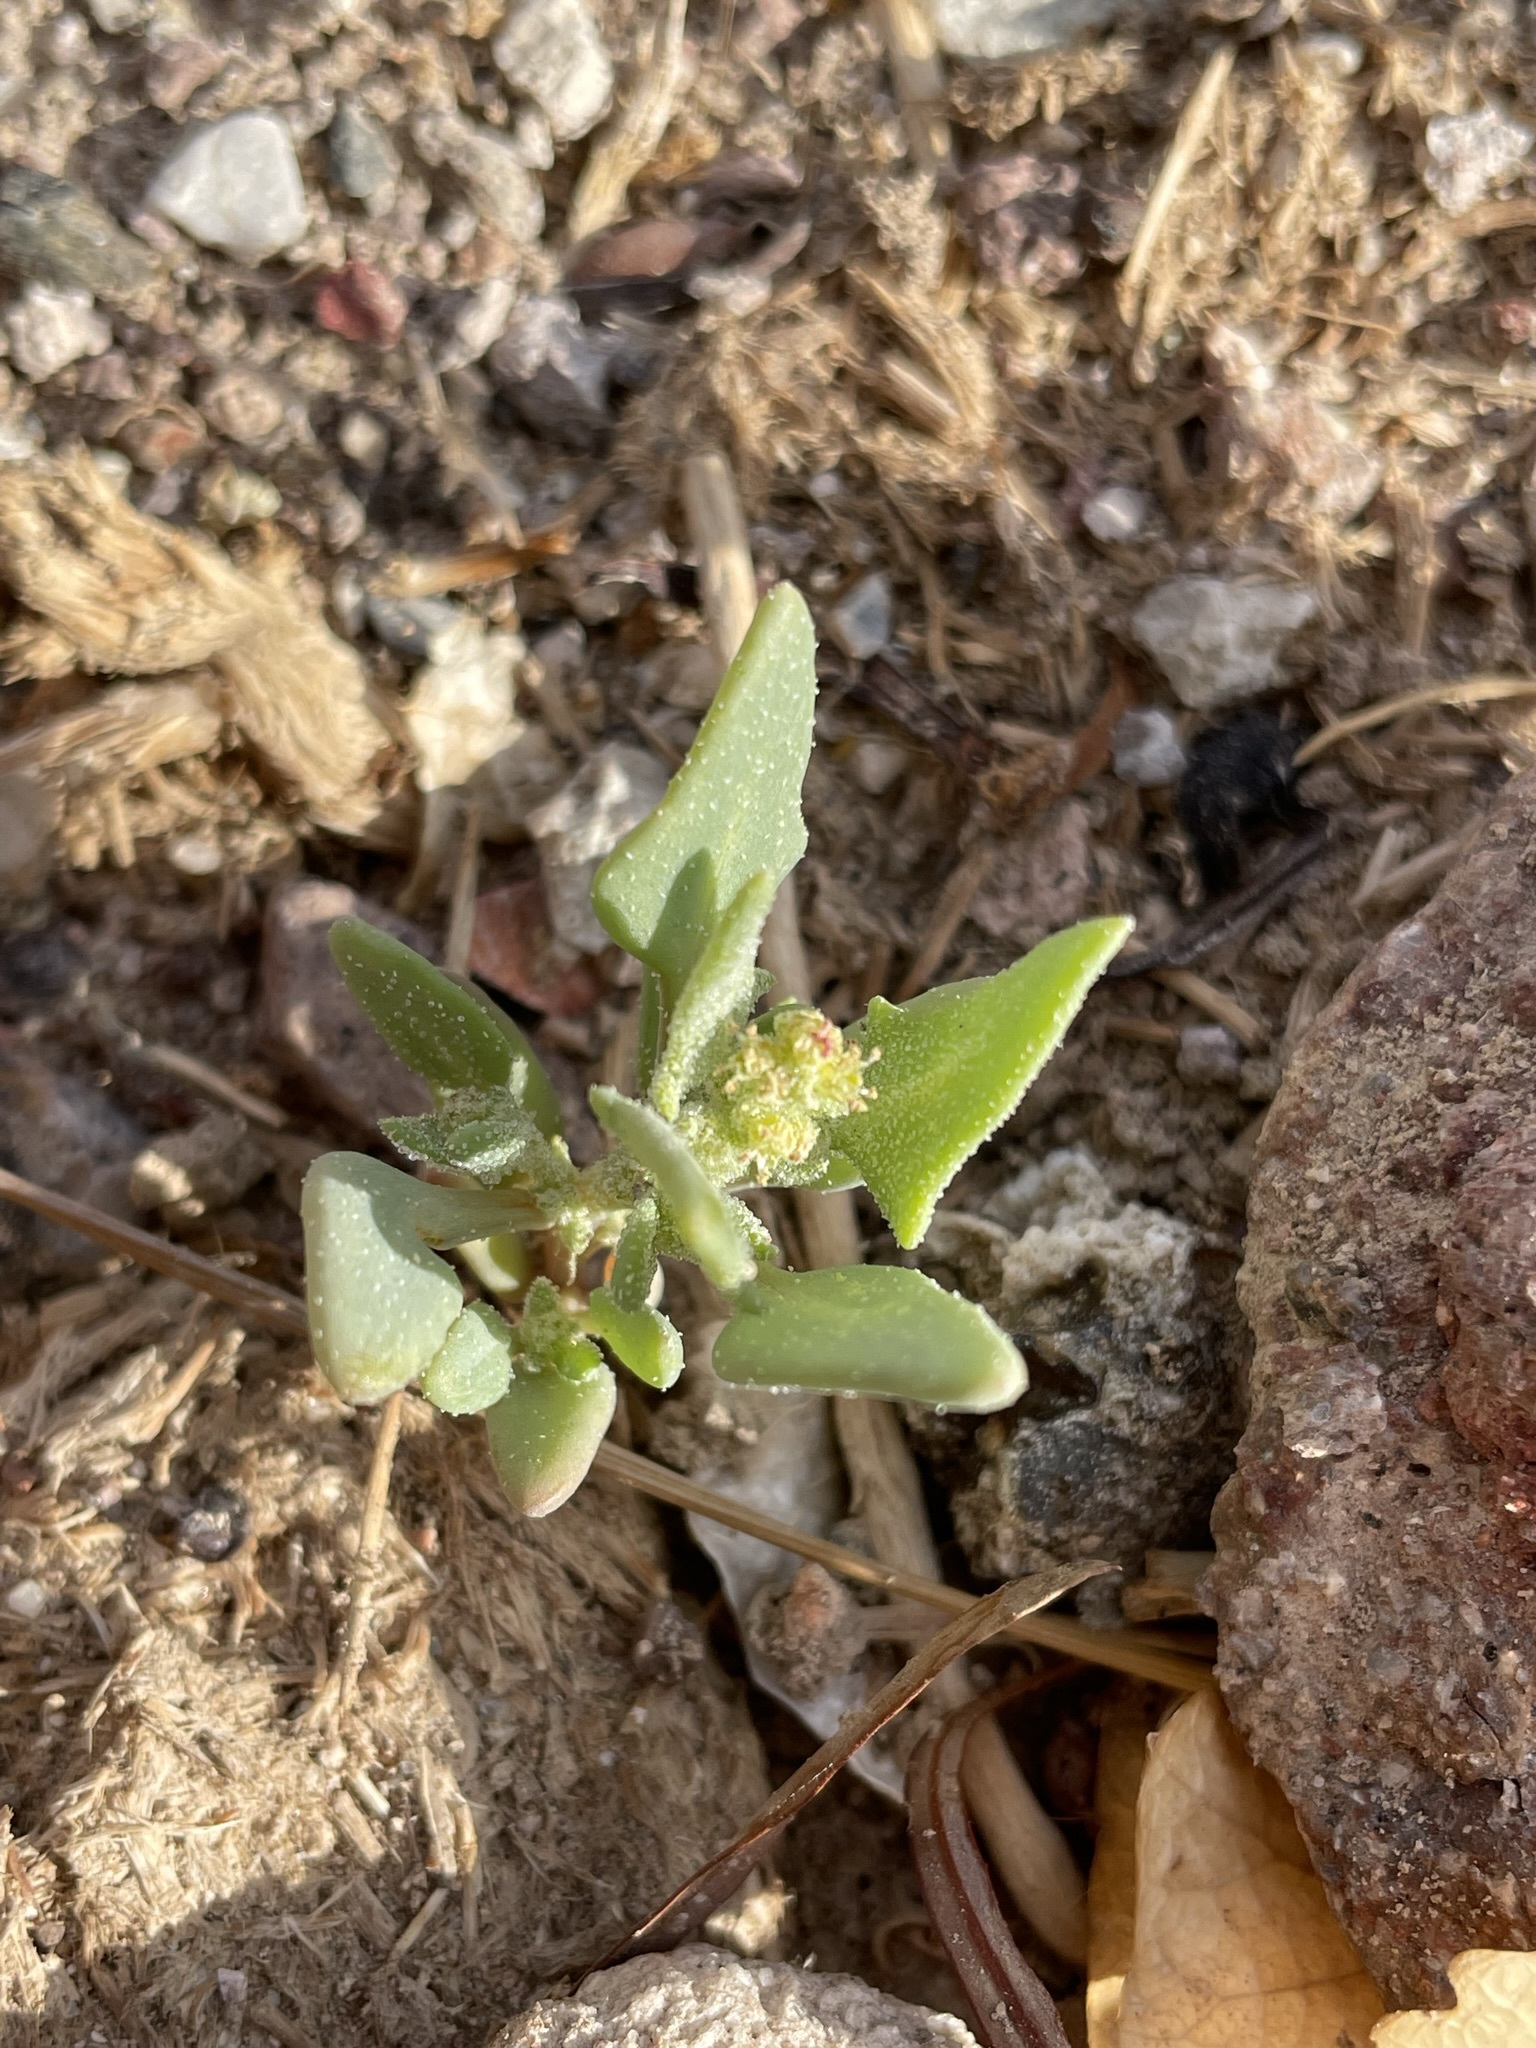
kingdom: Plantae
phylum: Tracheophyta
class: Magnoliopsida
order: Caryophyllales
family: Amaranthaceae
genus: Stutzia
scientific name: Stutzia covillei
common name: Coville's orach
